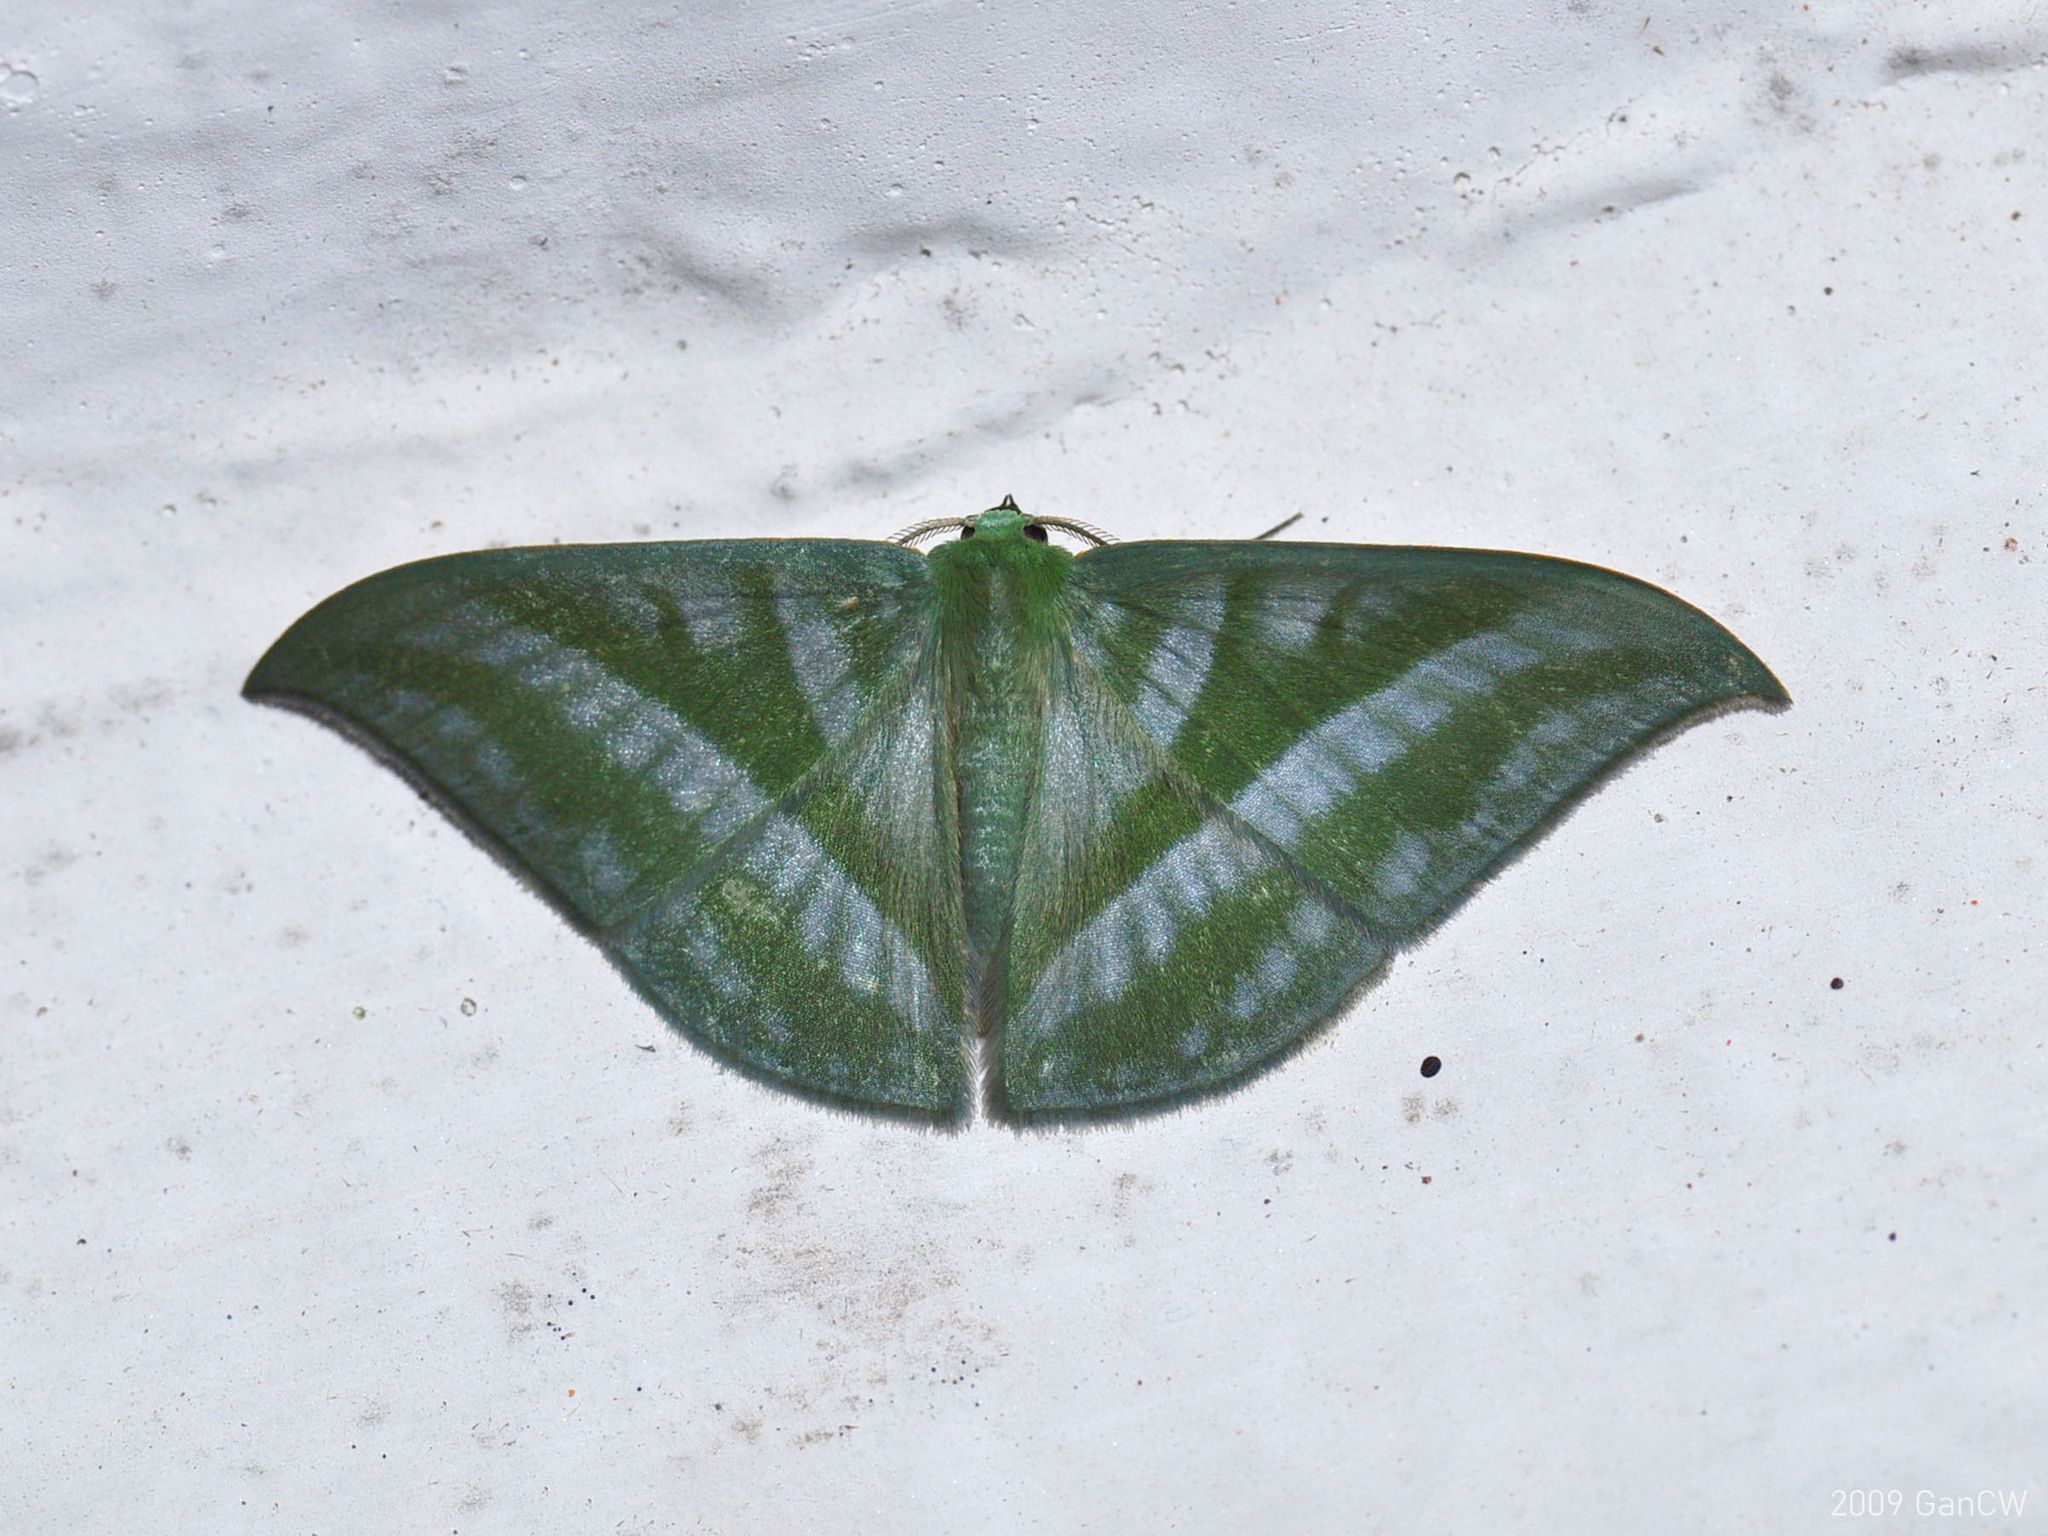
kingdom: Animalia
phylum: Arthropoda
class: Insecta
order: Lepidoptera
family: Geometridae
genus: Mixochlora
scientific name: Mixochlora vittata
